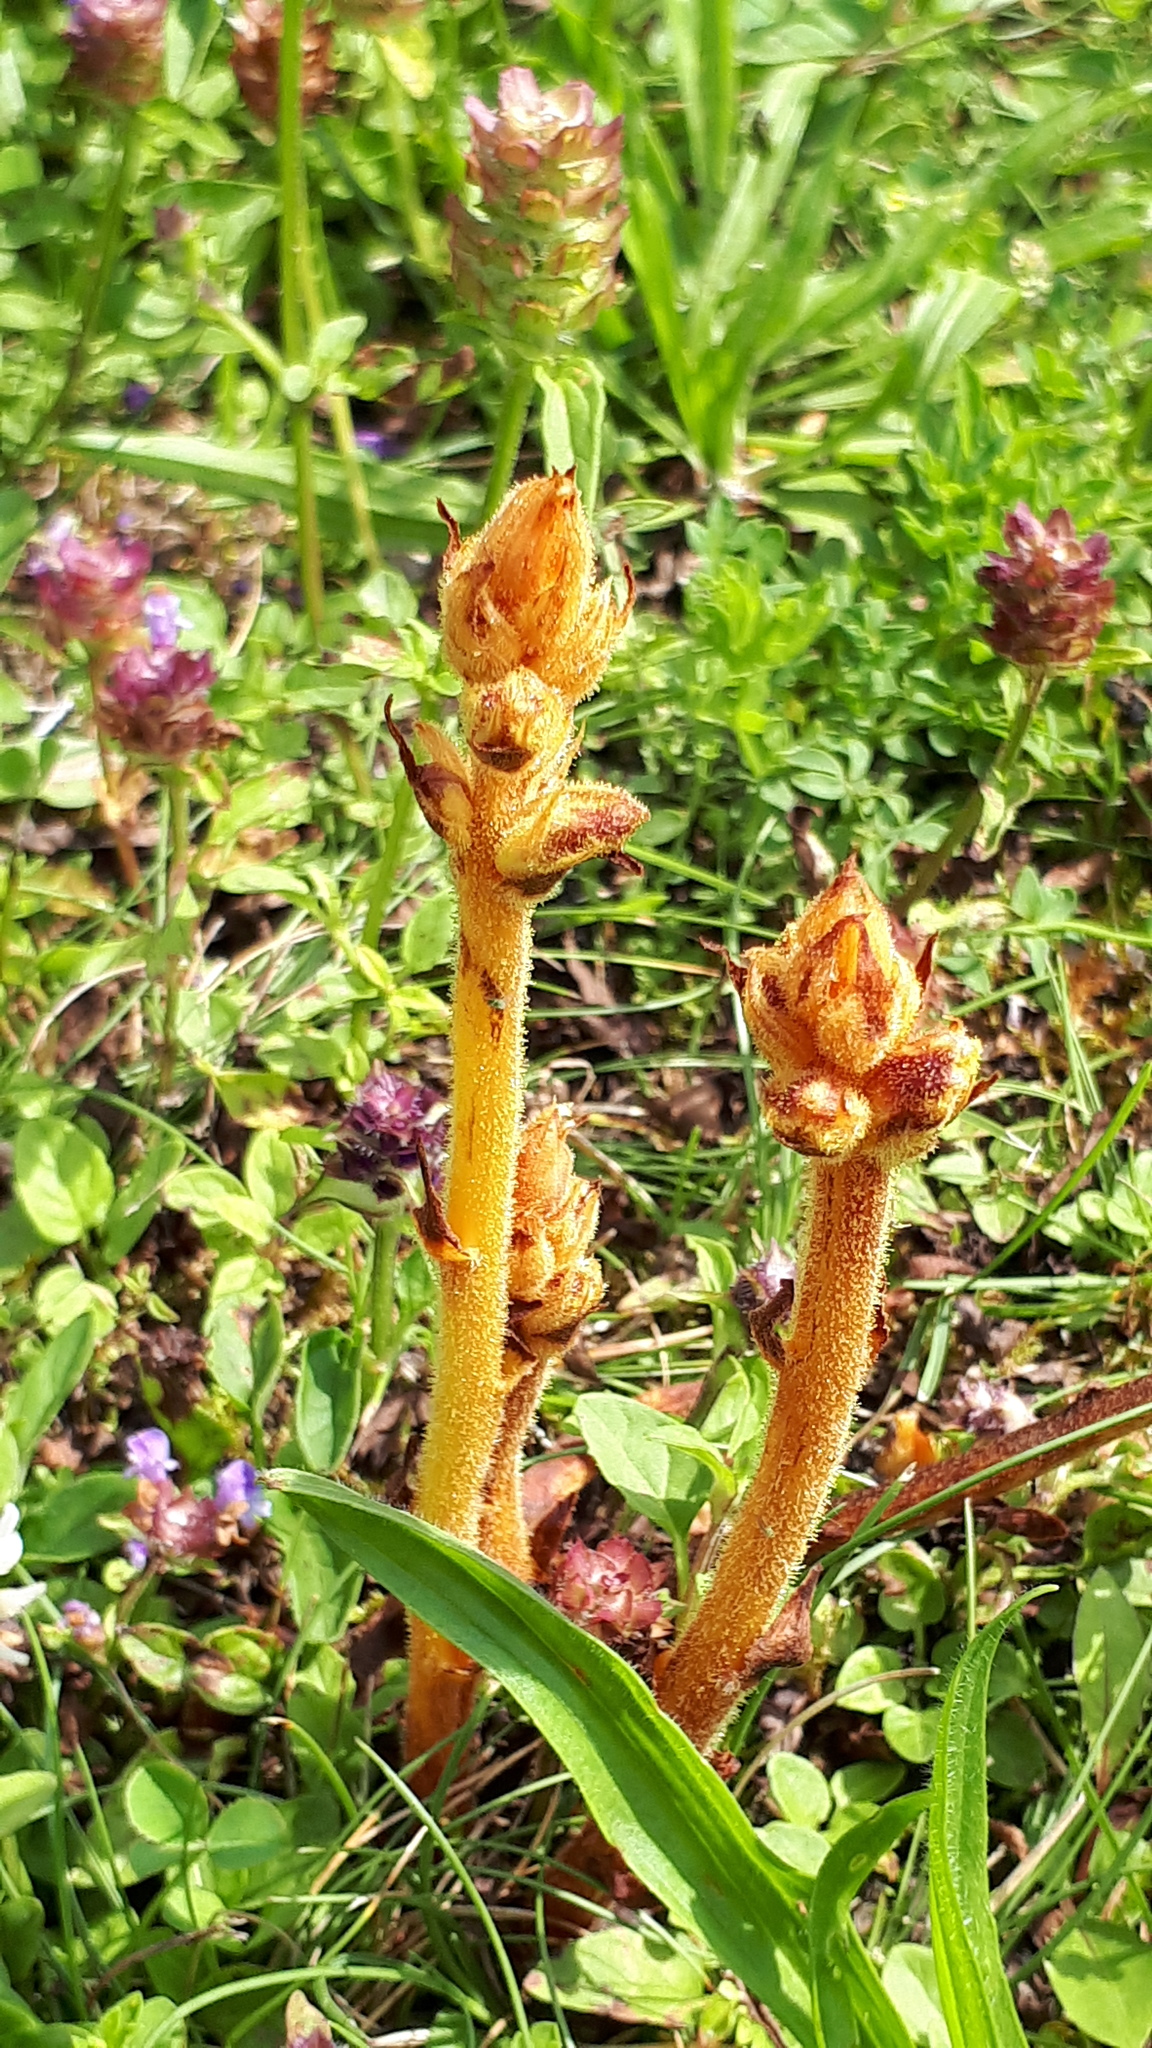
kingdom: Plantae
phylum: Tracheophyta
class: Magnoliopsida
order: Lamiales
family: Orobanchaceae
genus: Orobanche
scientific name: Orobanche gracilis
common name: Slender broomrape
